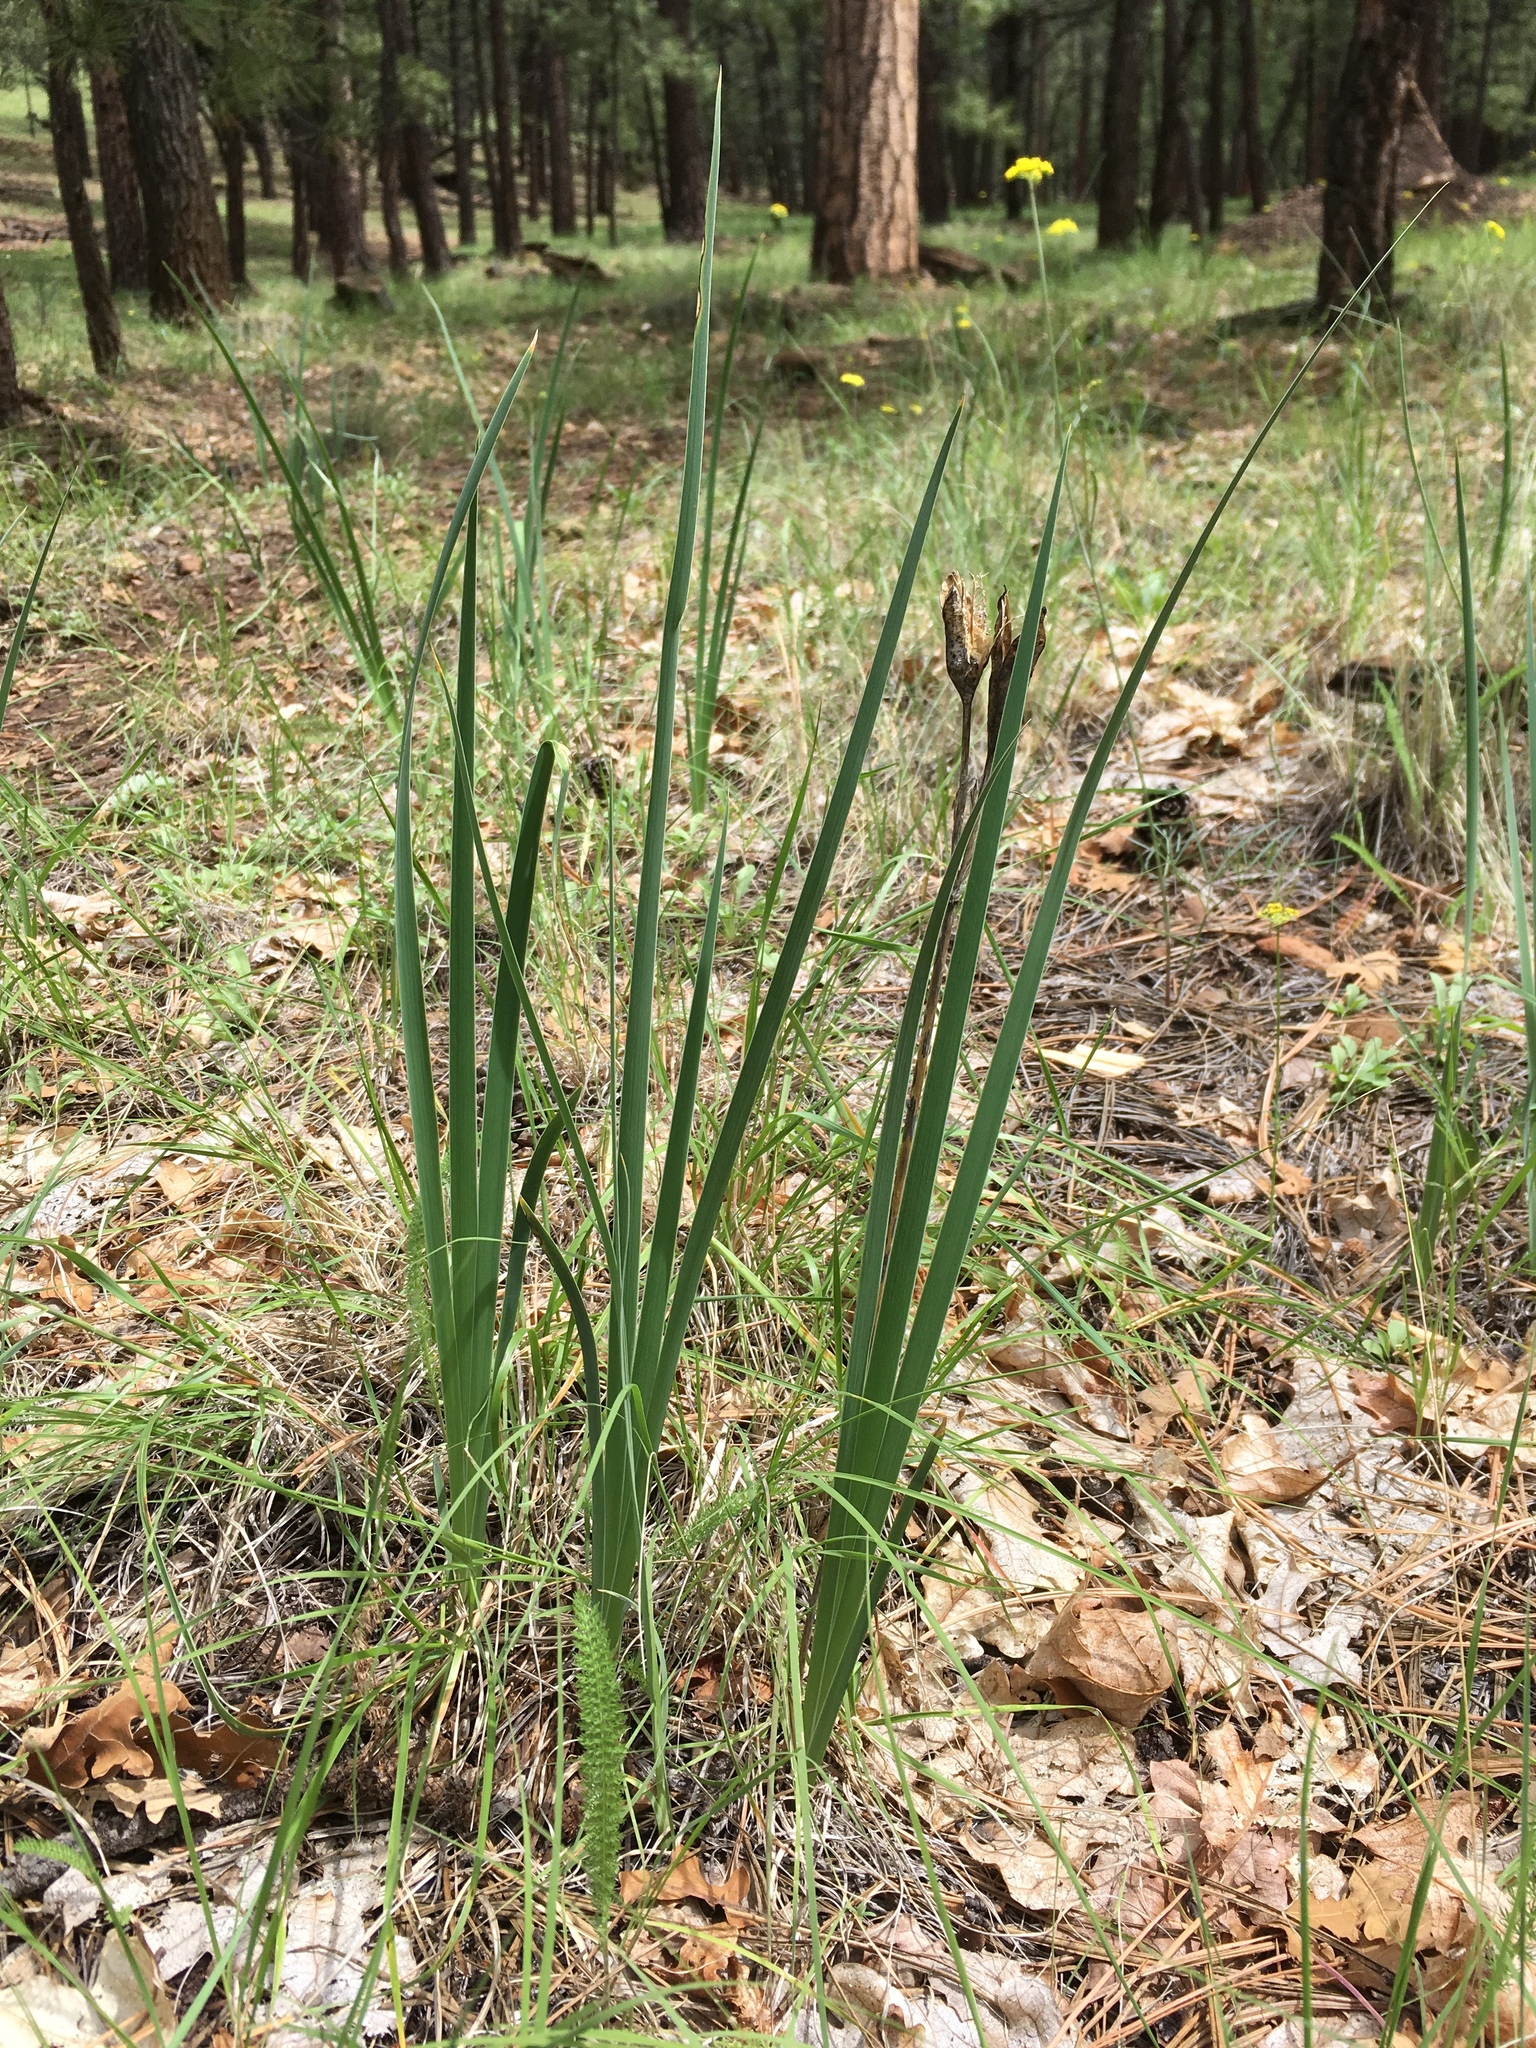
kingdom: Plantae
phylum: Tracheophyta
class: Liliopsida
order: Asparagales
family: Iridaceae
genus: Iris
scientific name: Iris missouriensis
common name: Rocky mountain iris
